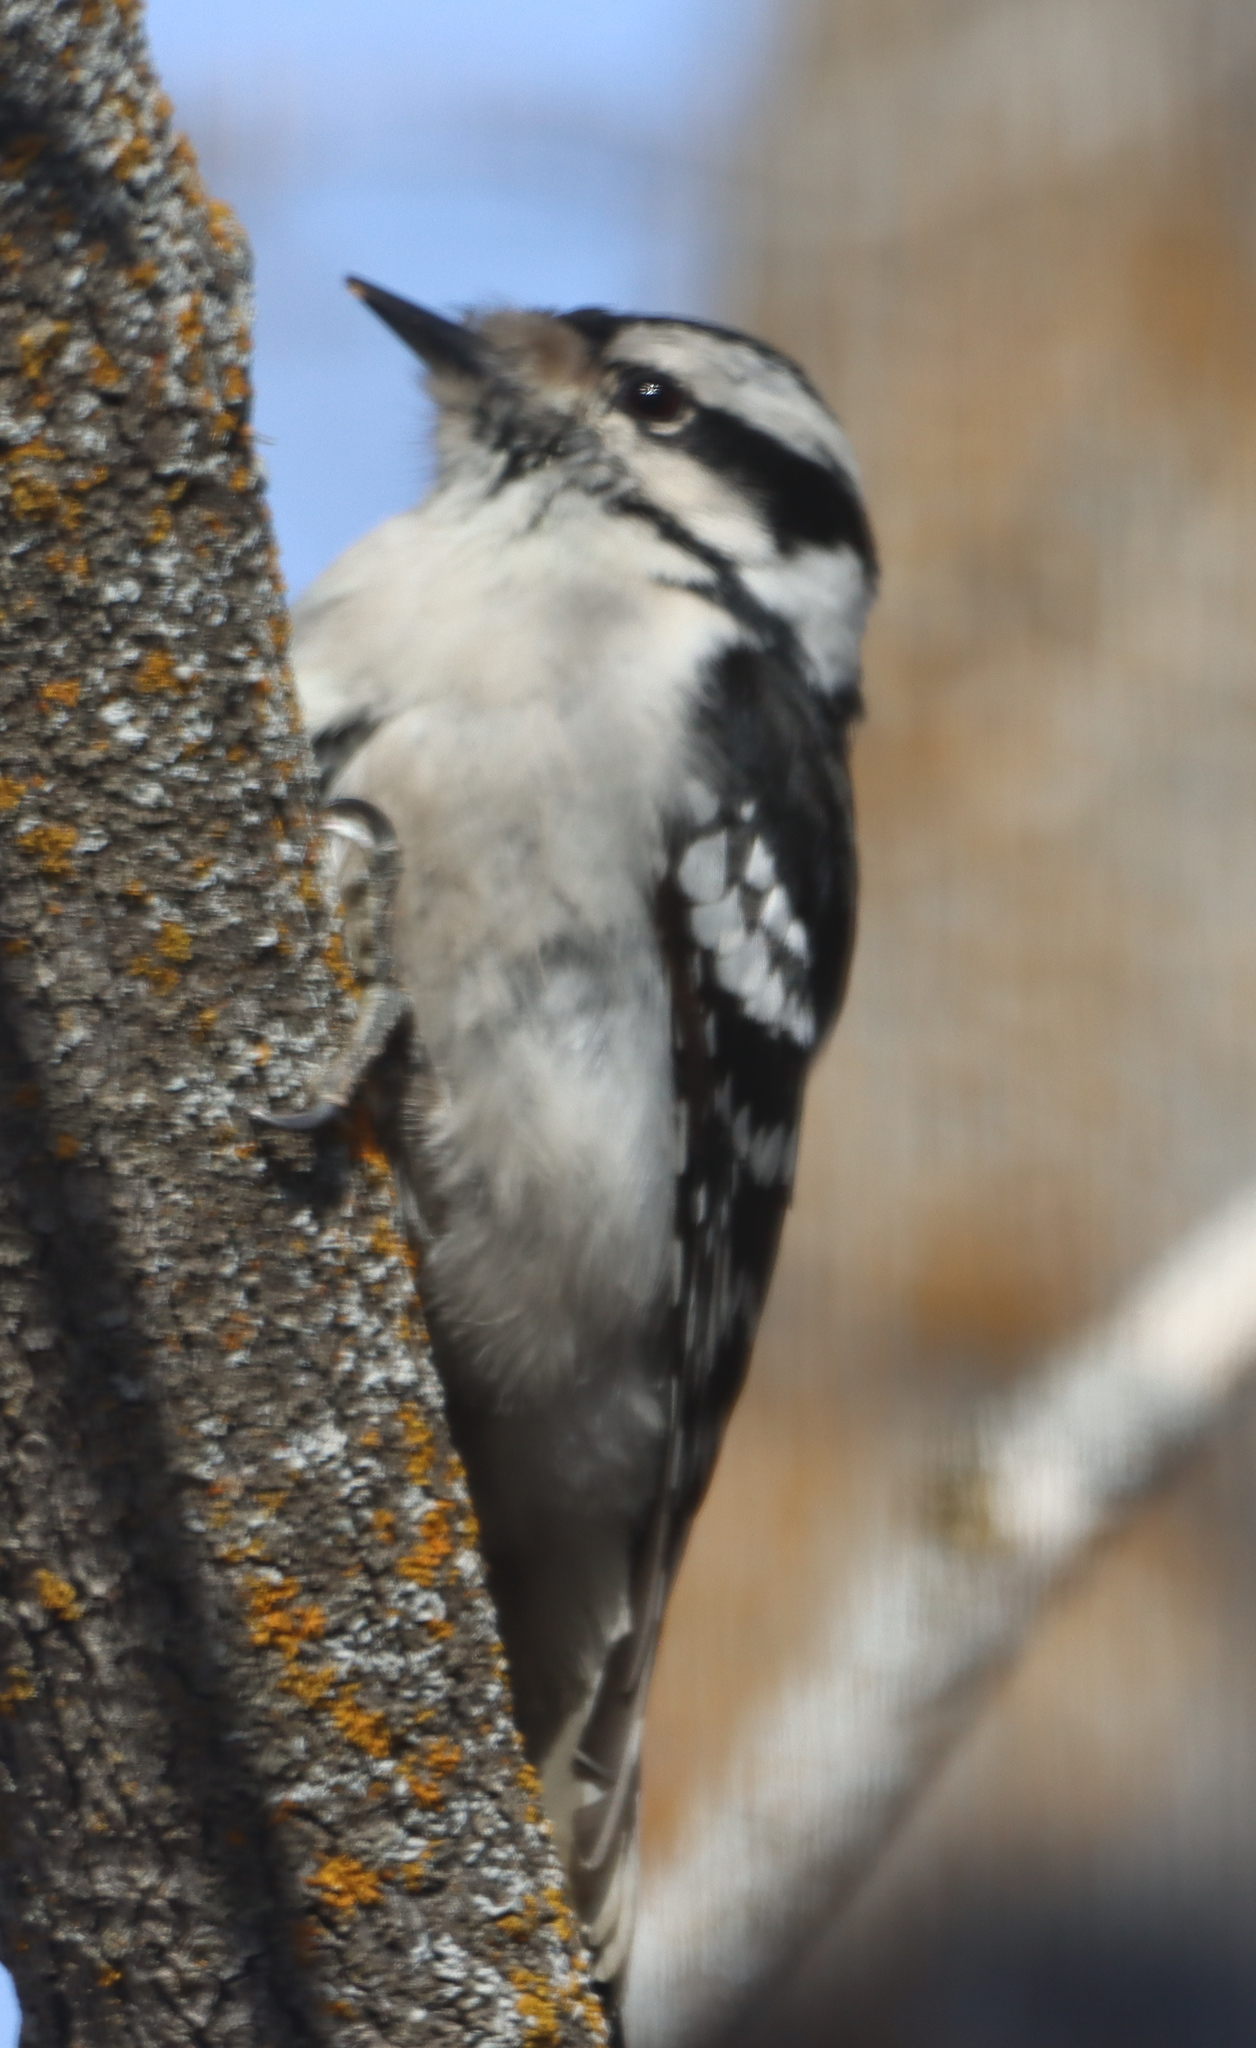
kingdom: Animalia
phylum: Chordata
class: Aves
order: Piciformes
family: Picidae
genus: Dryobates
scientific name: Dryobates pubescens
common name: Downy woodpecker
